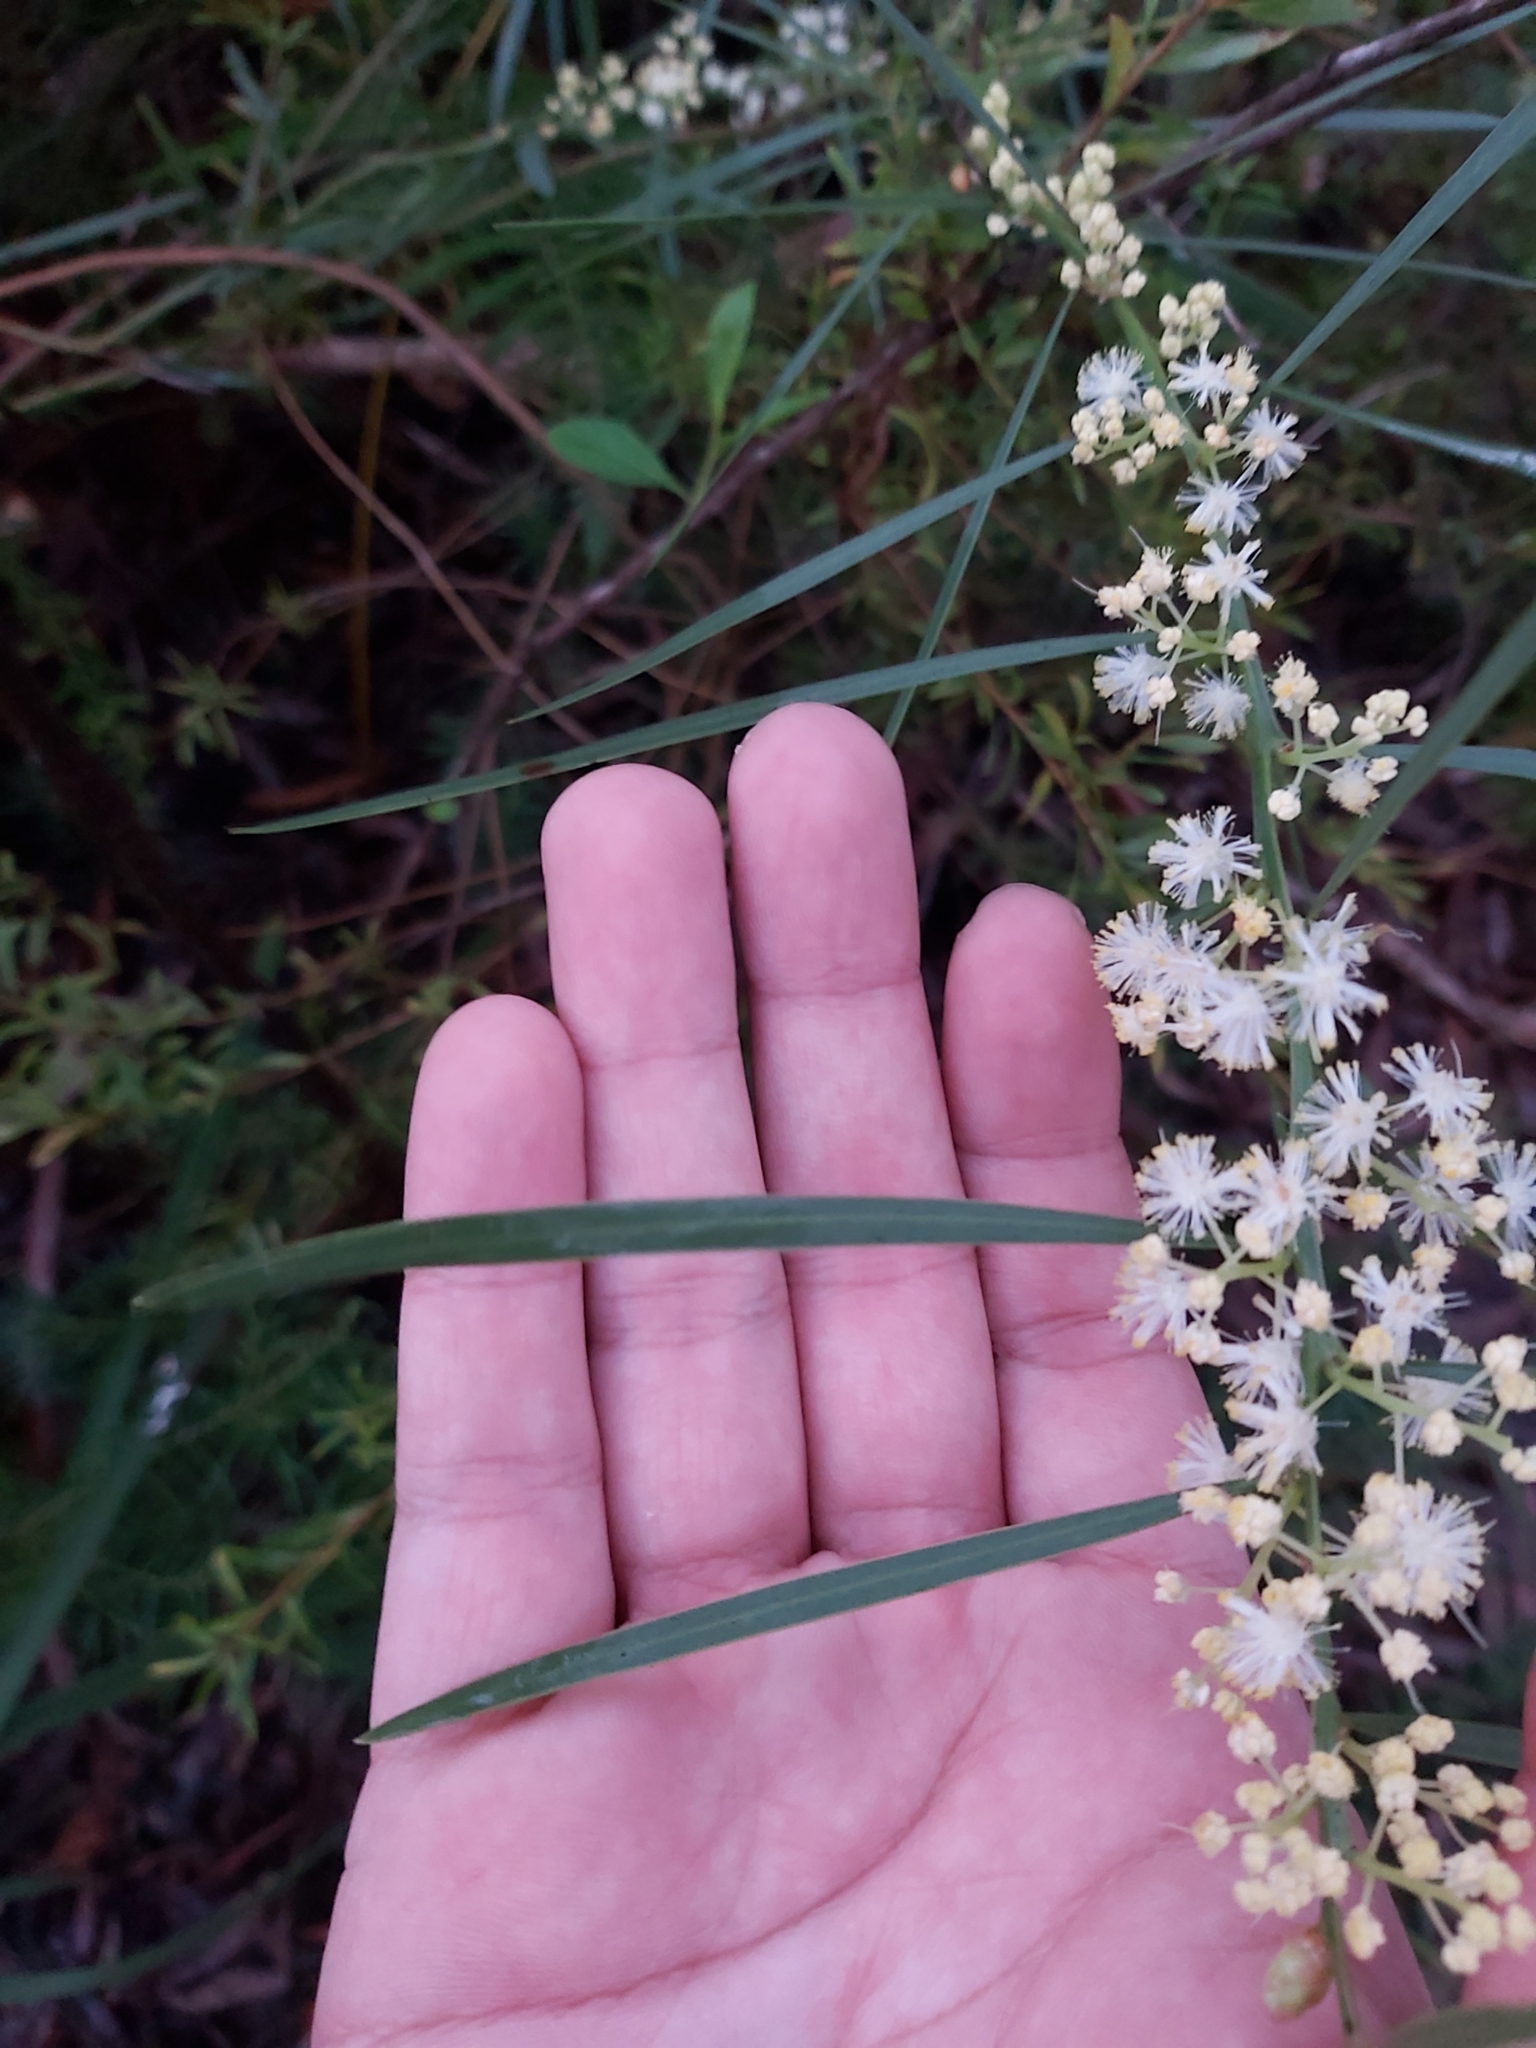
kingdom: Plantae
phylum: Tracheophyta
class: Magnoliopsida
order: Fabales
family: Fabaceae
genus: Acacia
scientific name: Acacia suaveolens
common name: Sweet acacia
